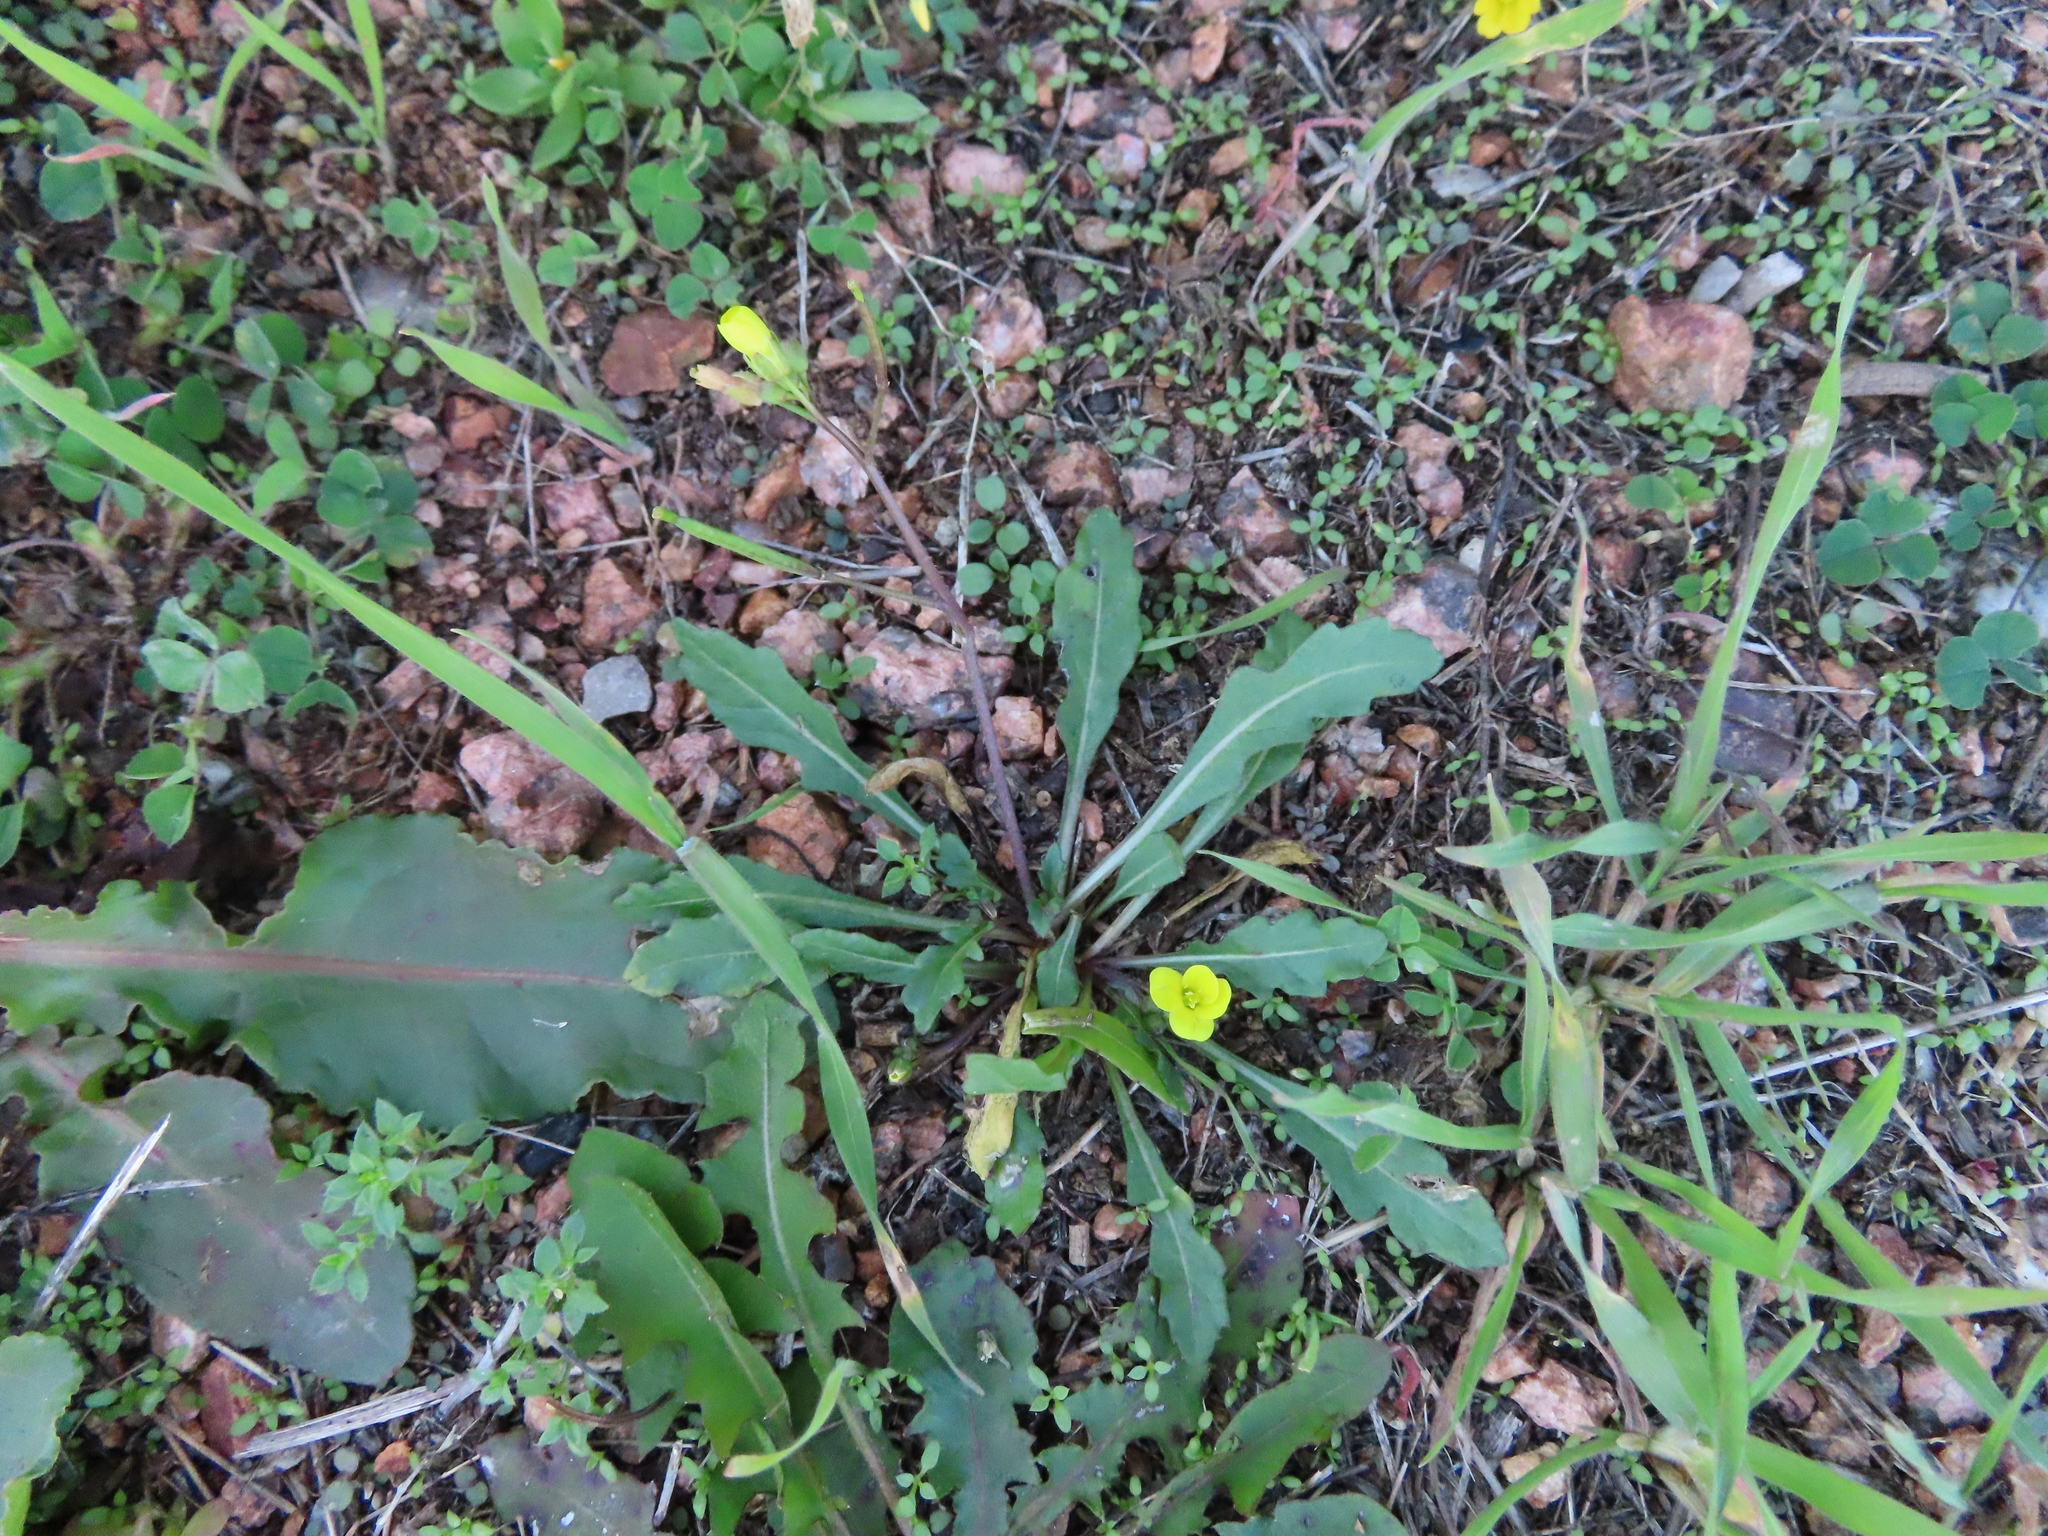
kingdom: Plantae
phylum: Tracheophyta
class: Magnoliopsida
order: Brassicales
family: Brassicaceae
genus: Diplotaxis
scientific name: Diplotaxis muralis
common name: Annual wall-rocket
